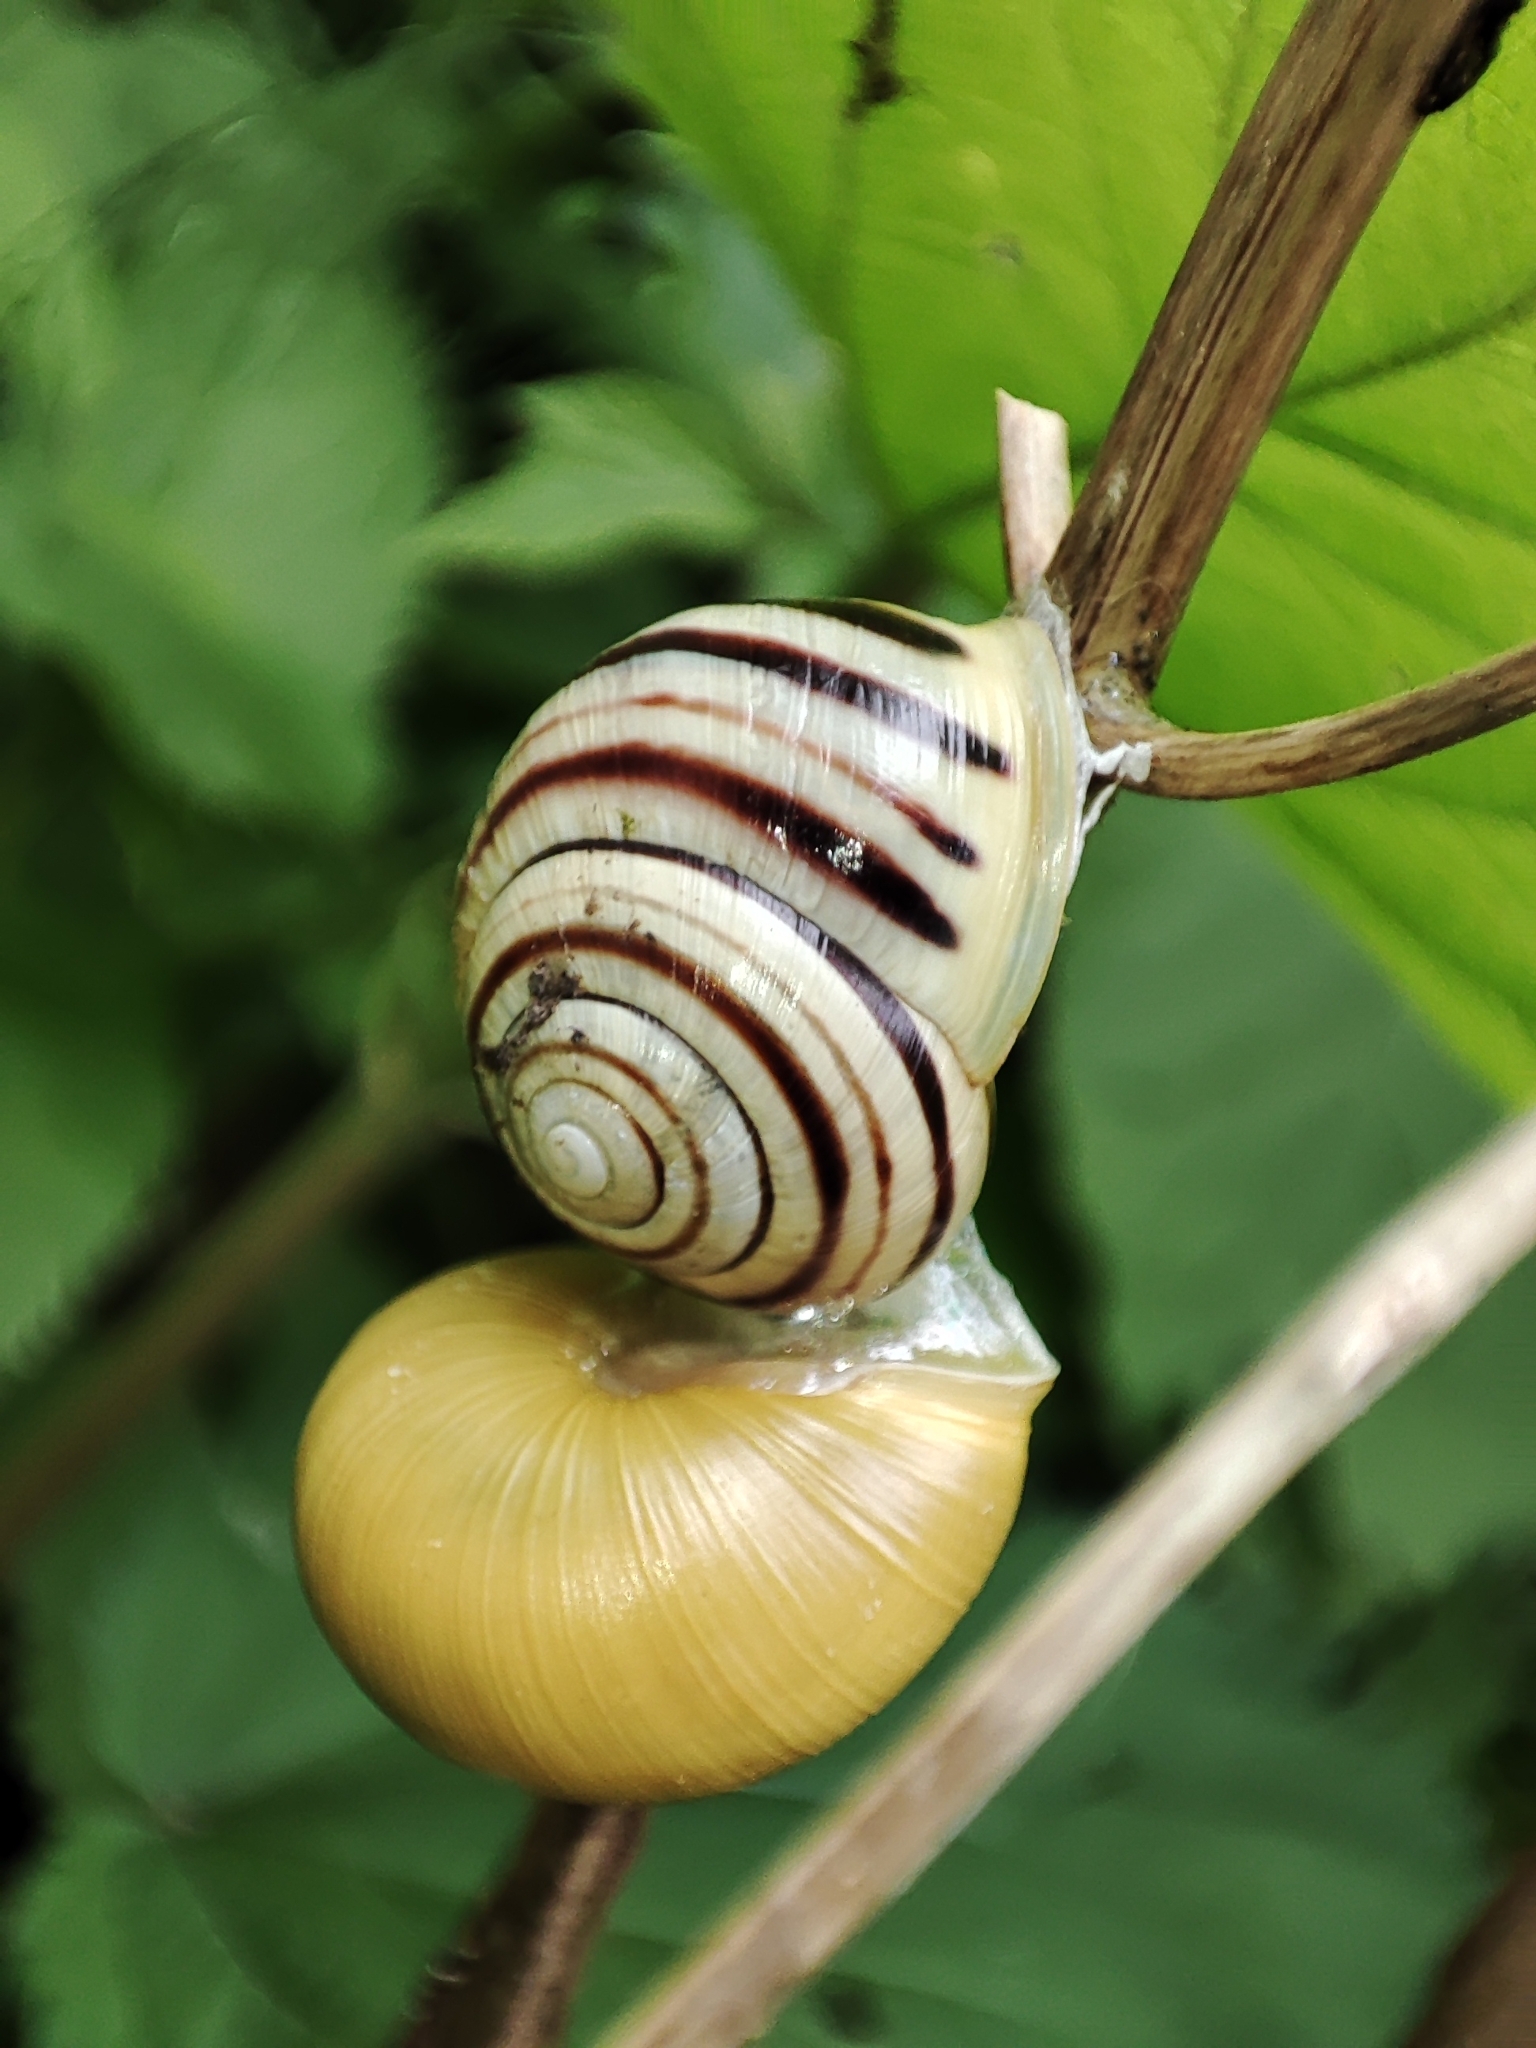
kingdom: Animalia
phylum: Mollusca
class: Gastropoda
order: Stylommatophora
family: Helicidae
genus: Cepaea
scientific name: Cepaea hortensis
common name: White-lip gardensnail
